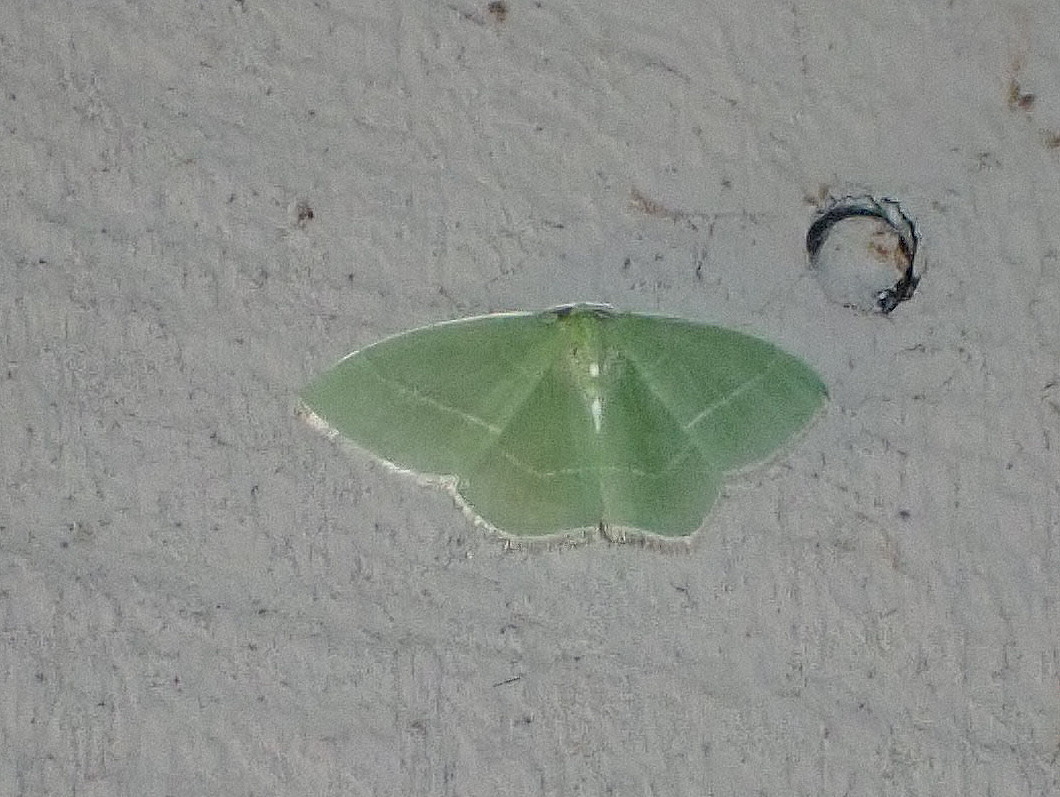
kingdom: Animalia
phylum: Arthropoda
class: Insecta
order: Lepidoptera
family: Geometridae
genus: Nemoria
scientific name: Nemoria mimosaria
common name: White-fringed emerald
